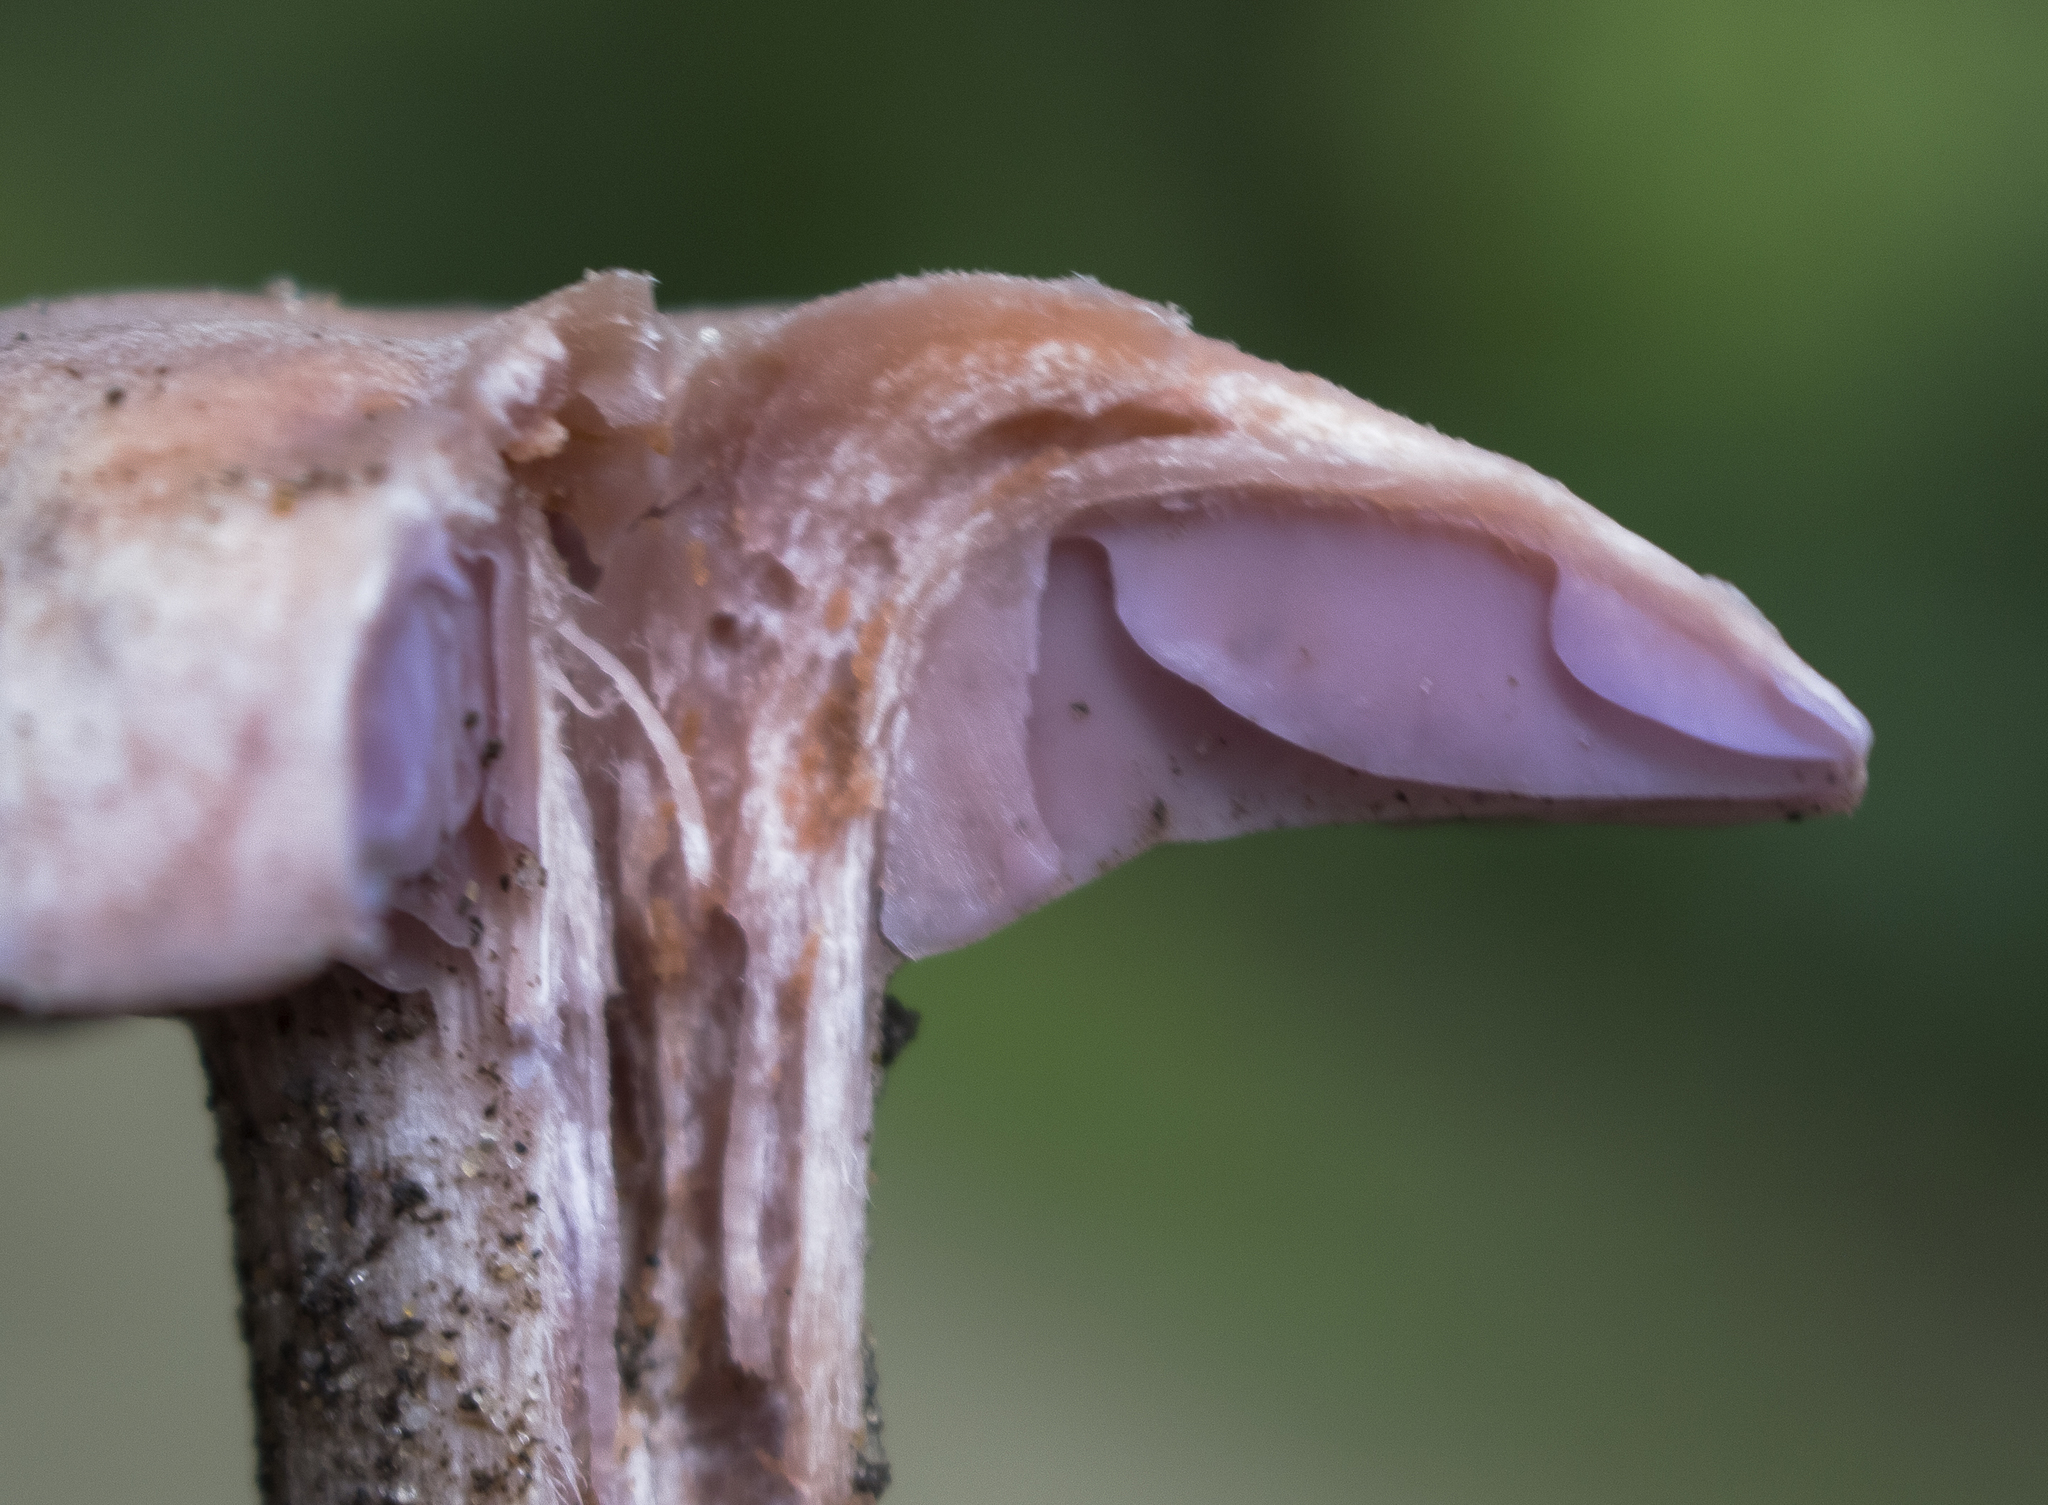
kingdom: Fungi
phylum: Basidiomycota
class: Agaricomycetes
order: Agaricales
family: Hydnangiaceae
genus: Laccaria
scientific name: Laccaria ochropurpurea
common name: Purple laccaria
